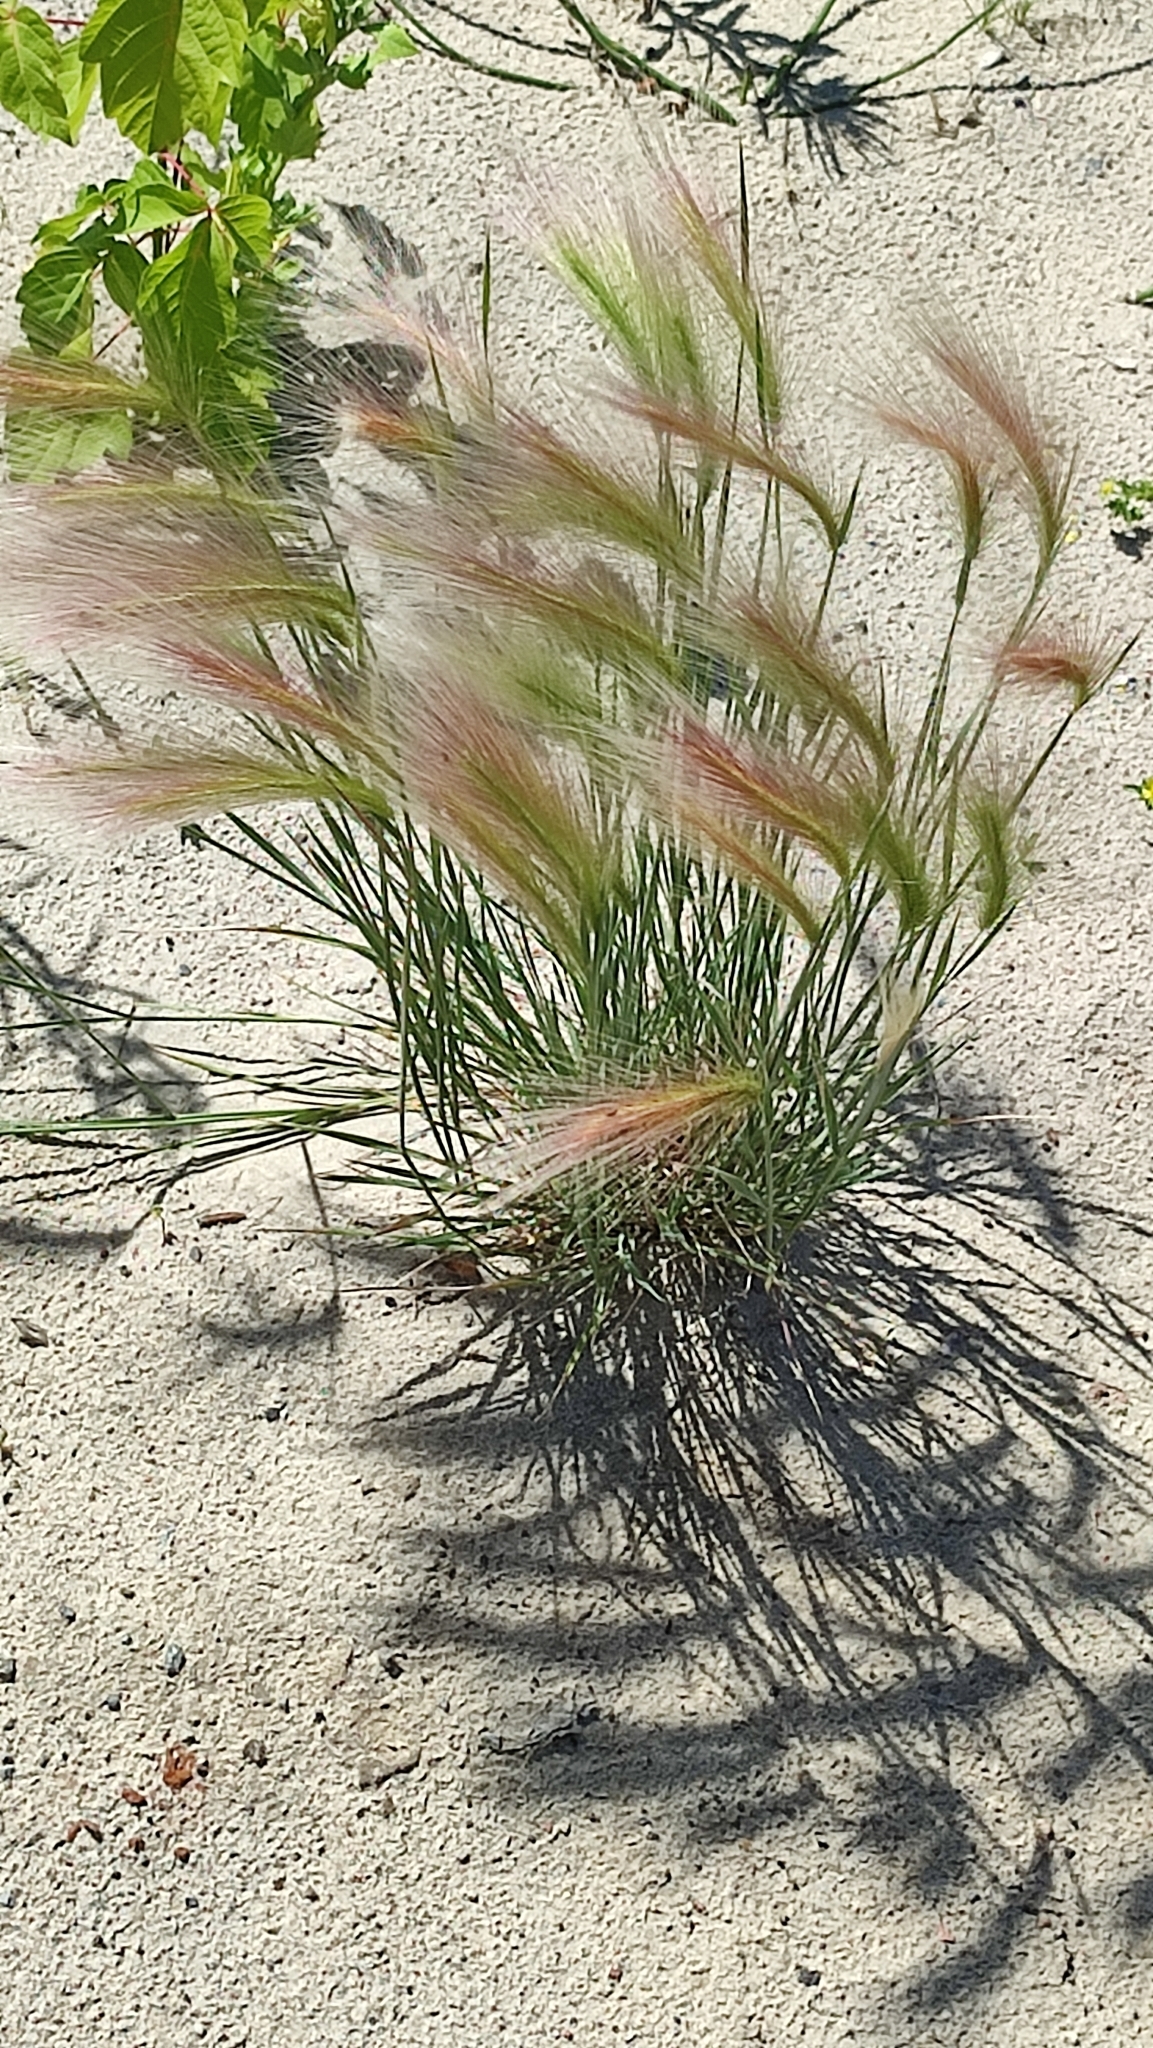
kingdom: Plantae
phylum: Tracheophyta
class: Liliopsida
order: Poales
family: Poaceae
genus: Hordeum
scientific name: Hordeum jubatum
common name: Foxtail barley
